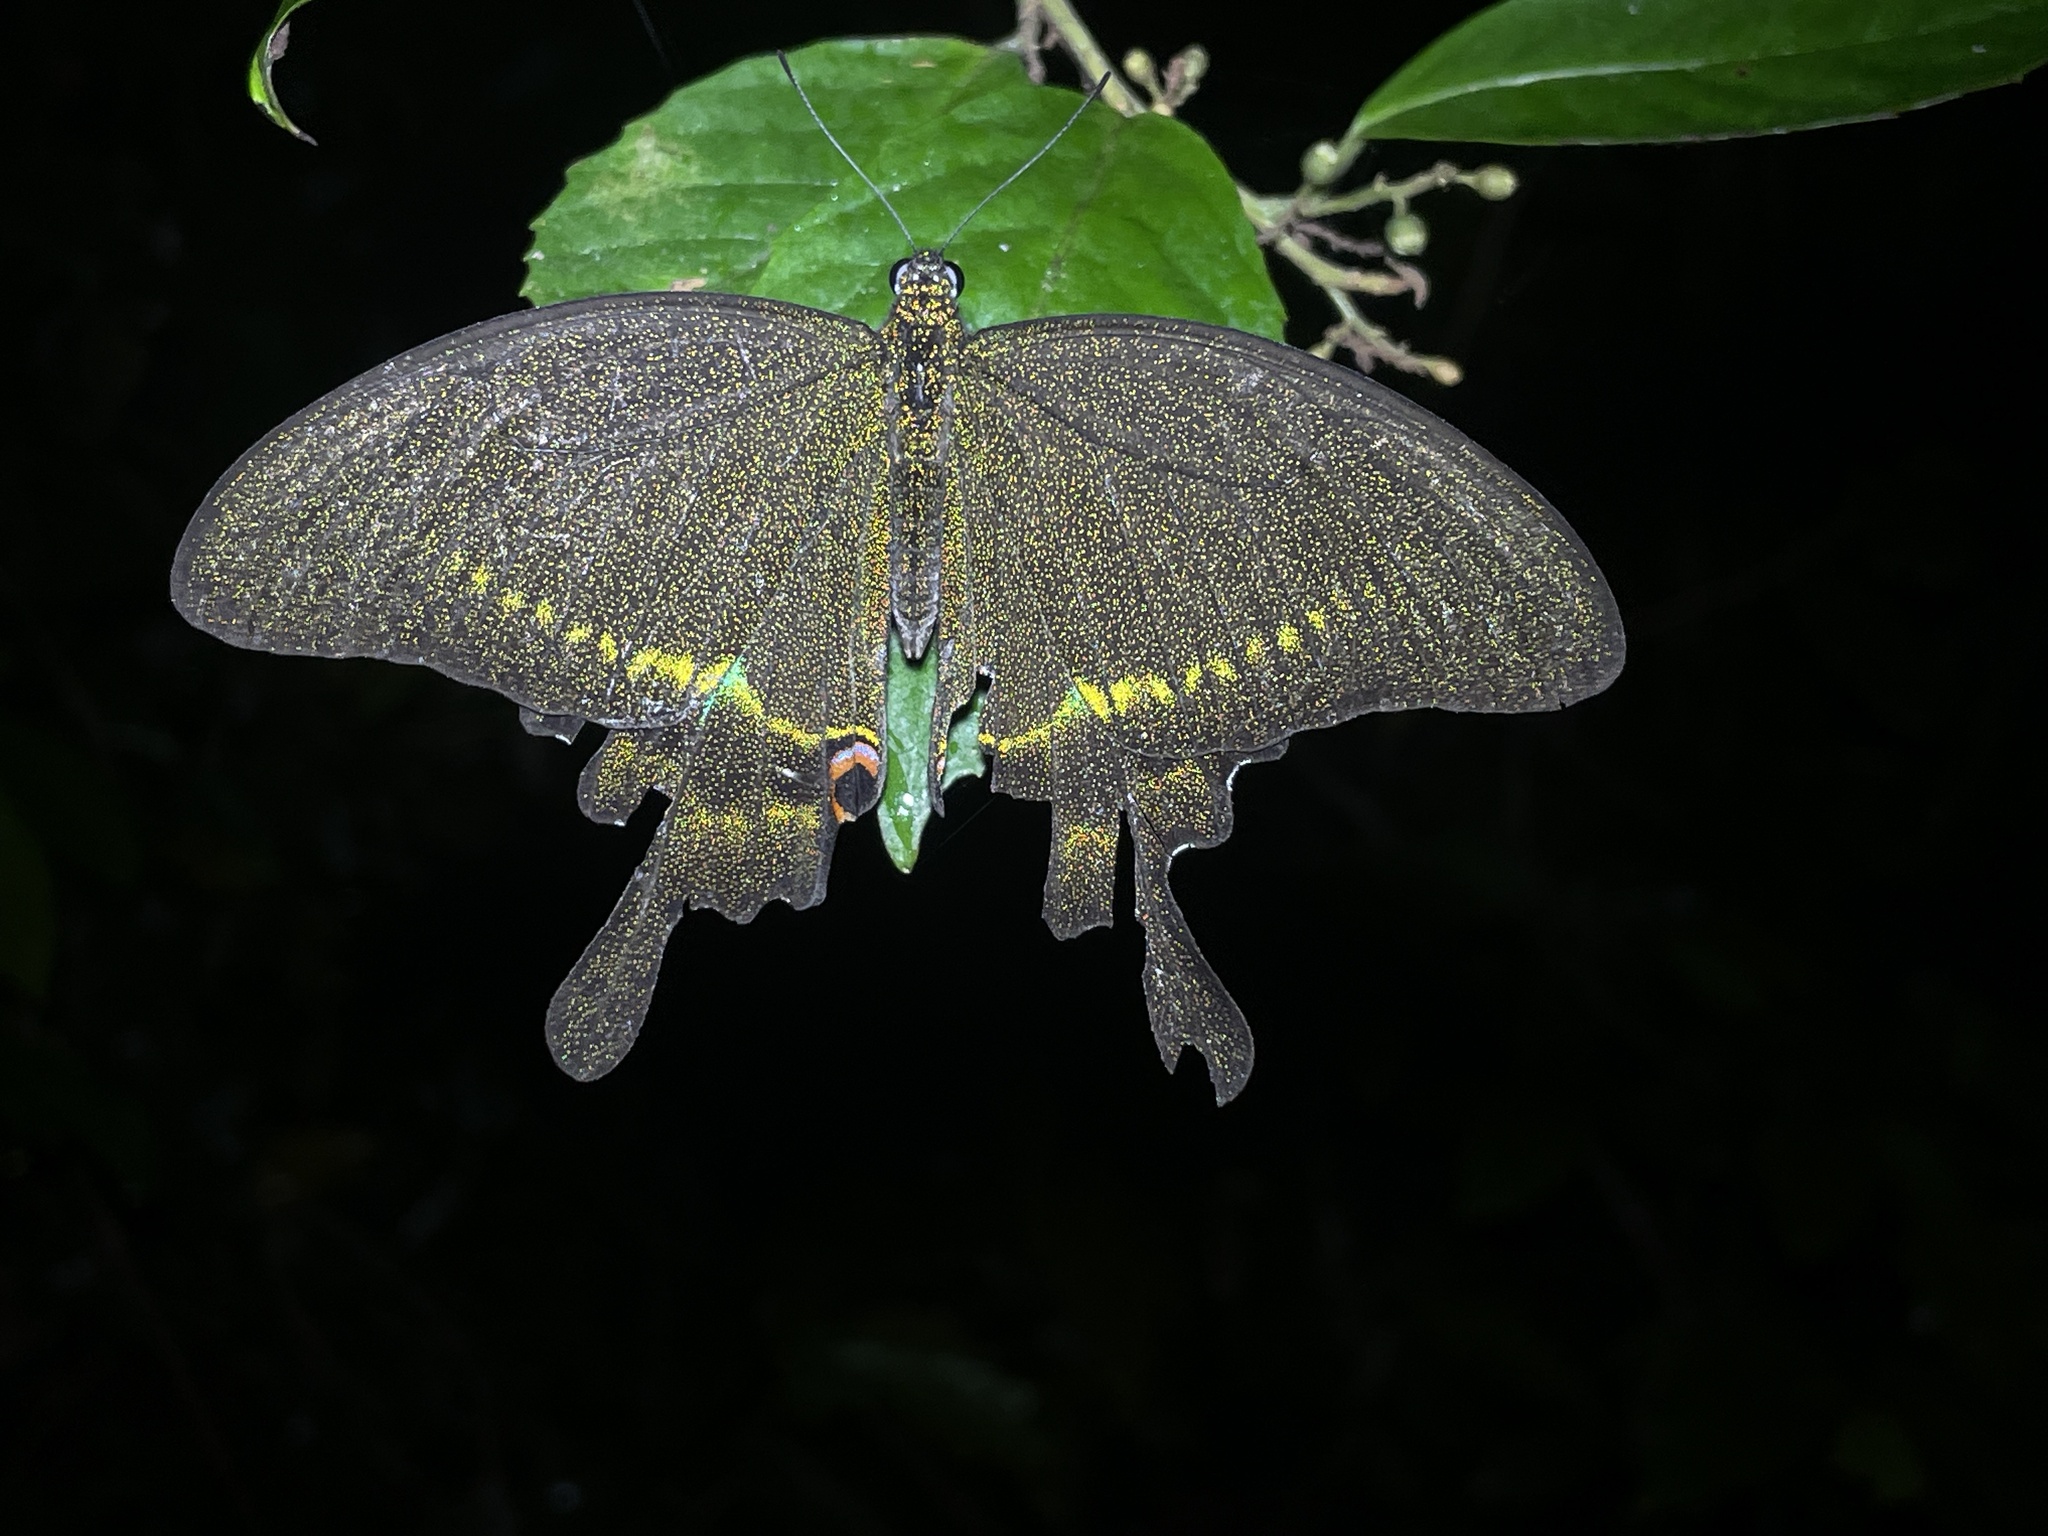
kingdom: Animalia
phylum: Arthropoda
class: Insecta
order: Lepidoptera
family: Papilionidae
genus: Papilio
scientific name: Papilio paris
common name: Paris peacock
